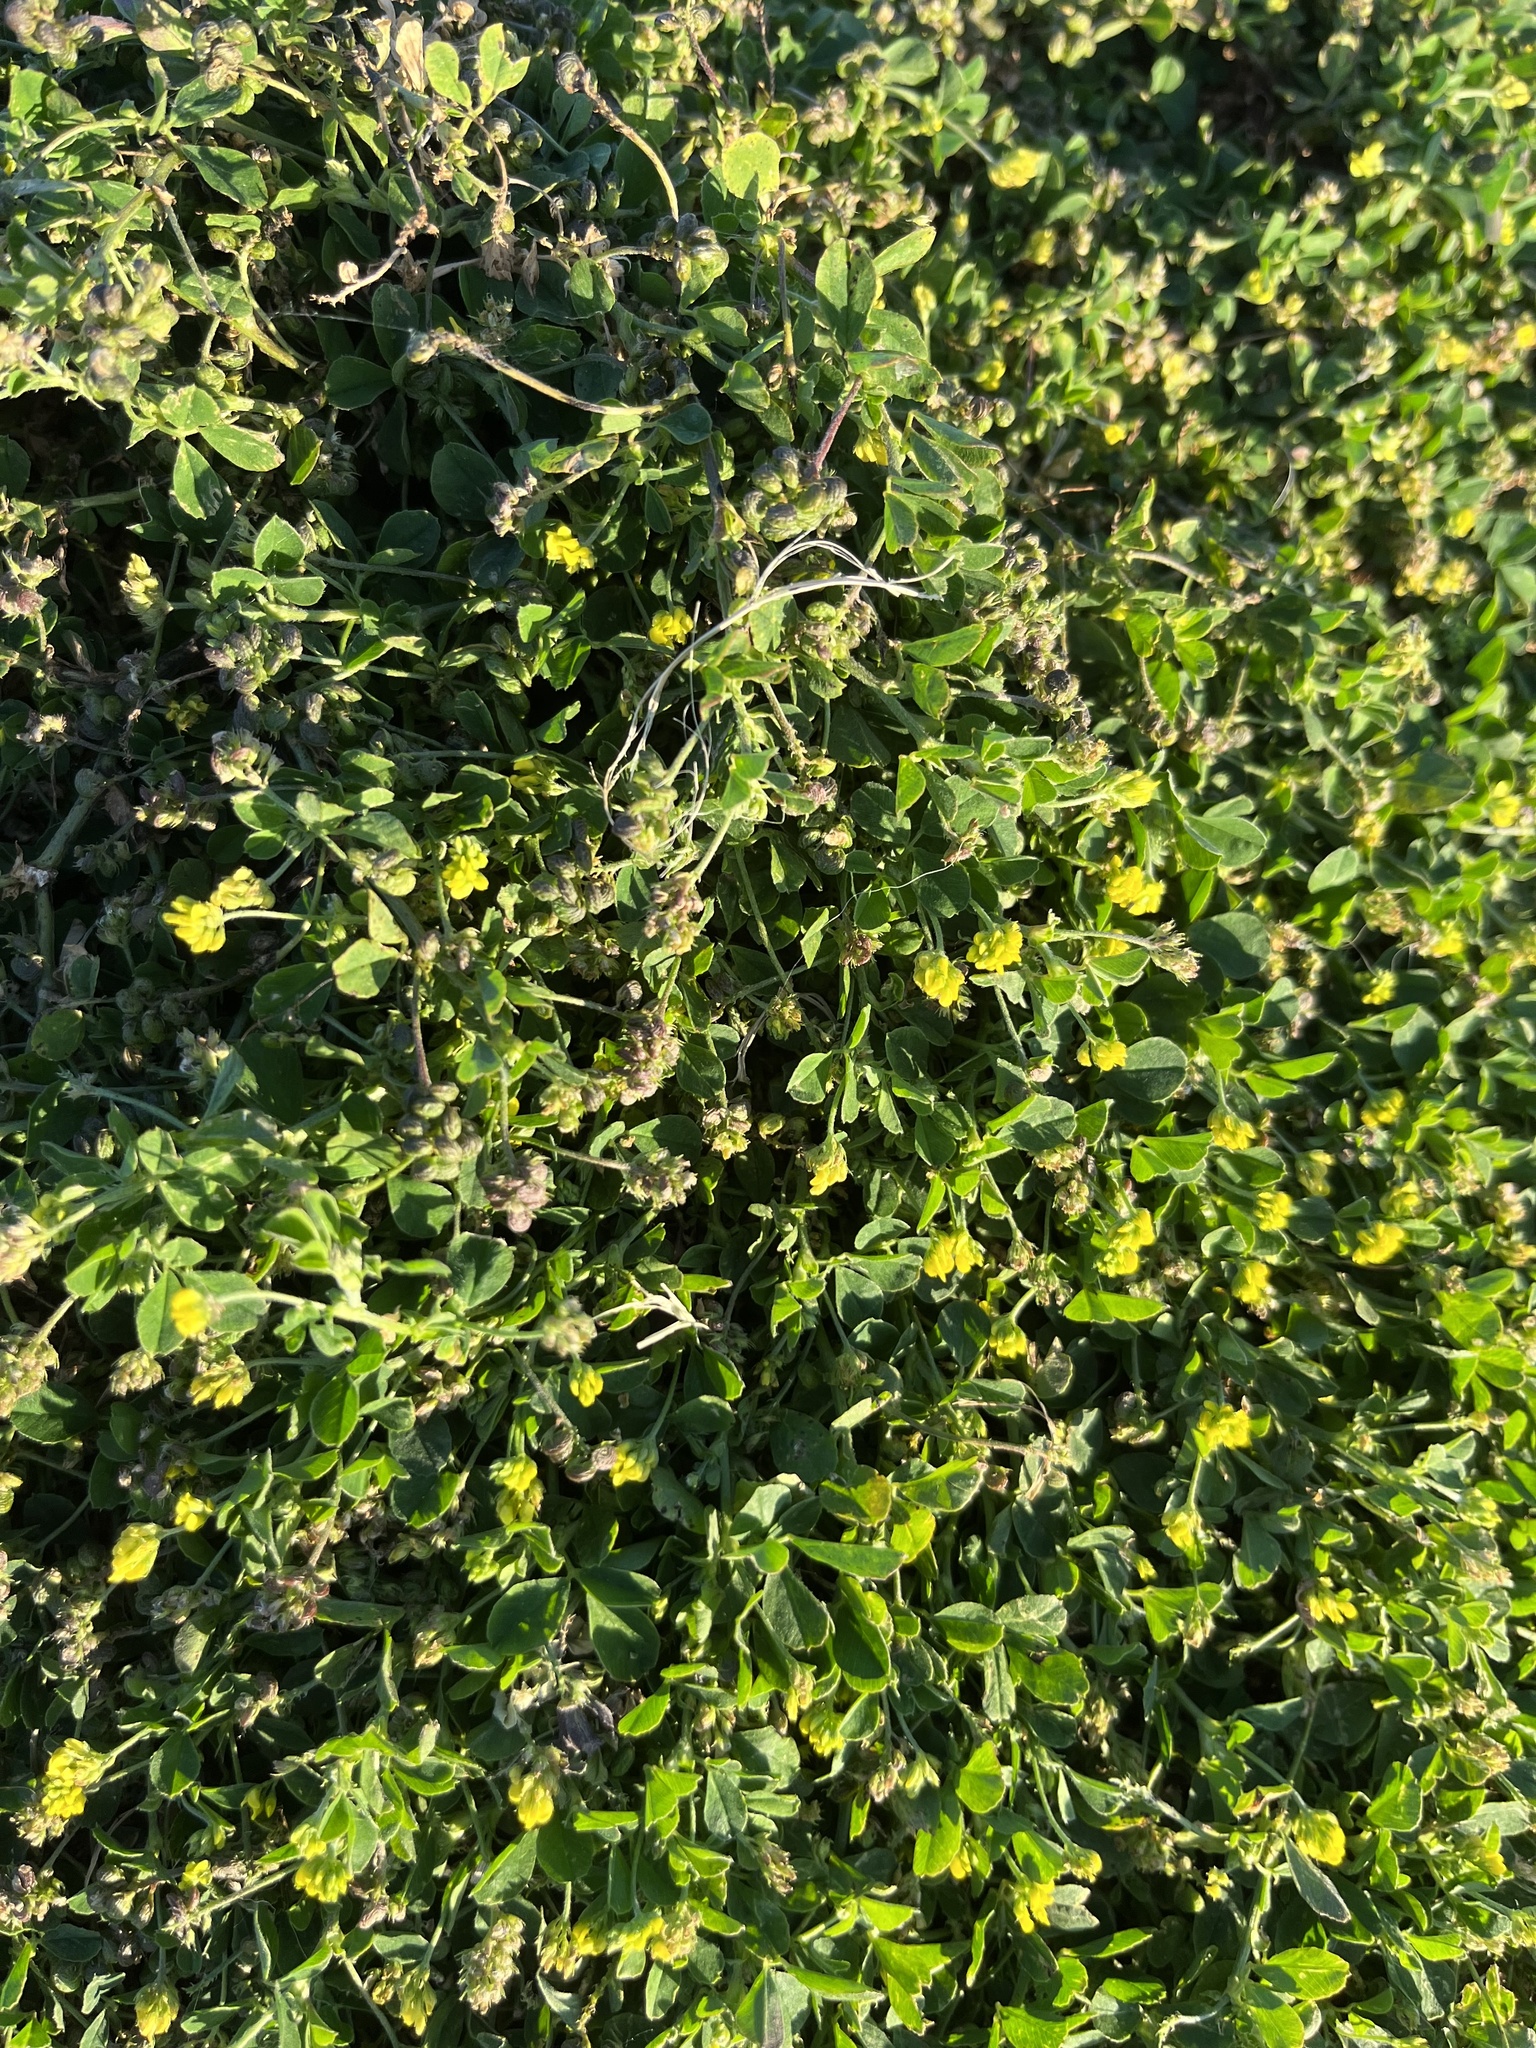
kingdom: Plantae
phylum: Tracheophyta
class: Magnoliopsida
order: Fabales
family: Fabaceae
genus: Medicago
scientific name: Medicago lupulina
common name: Black medick
